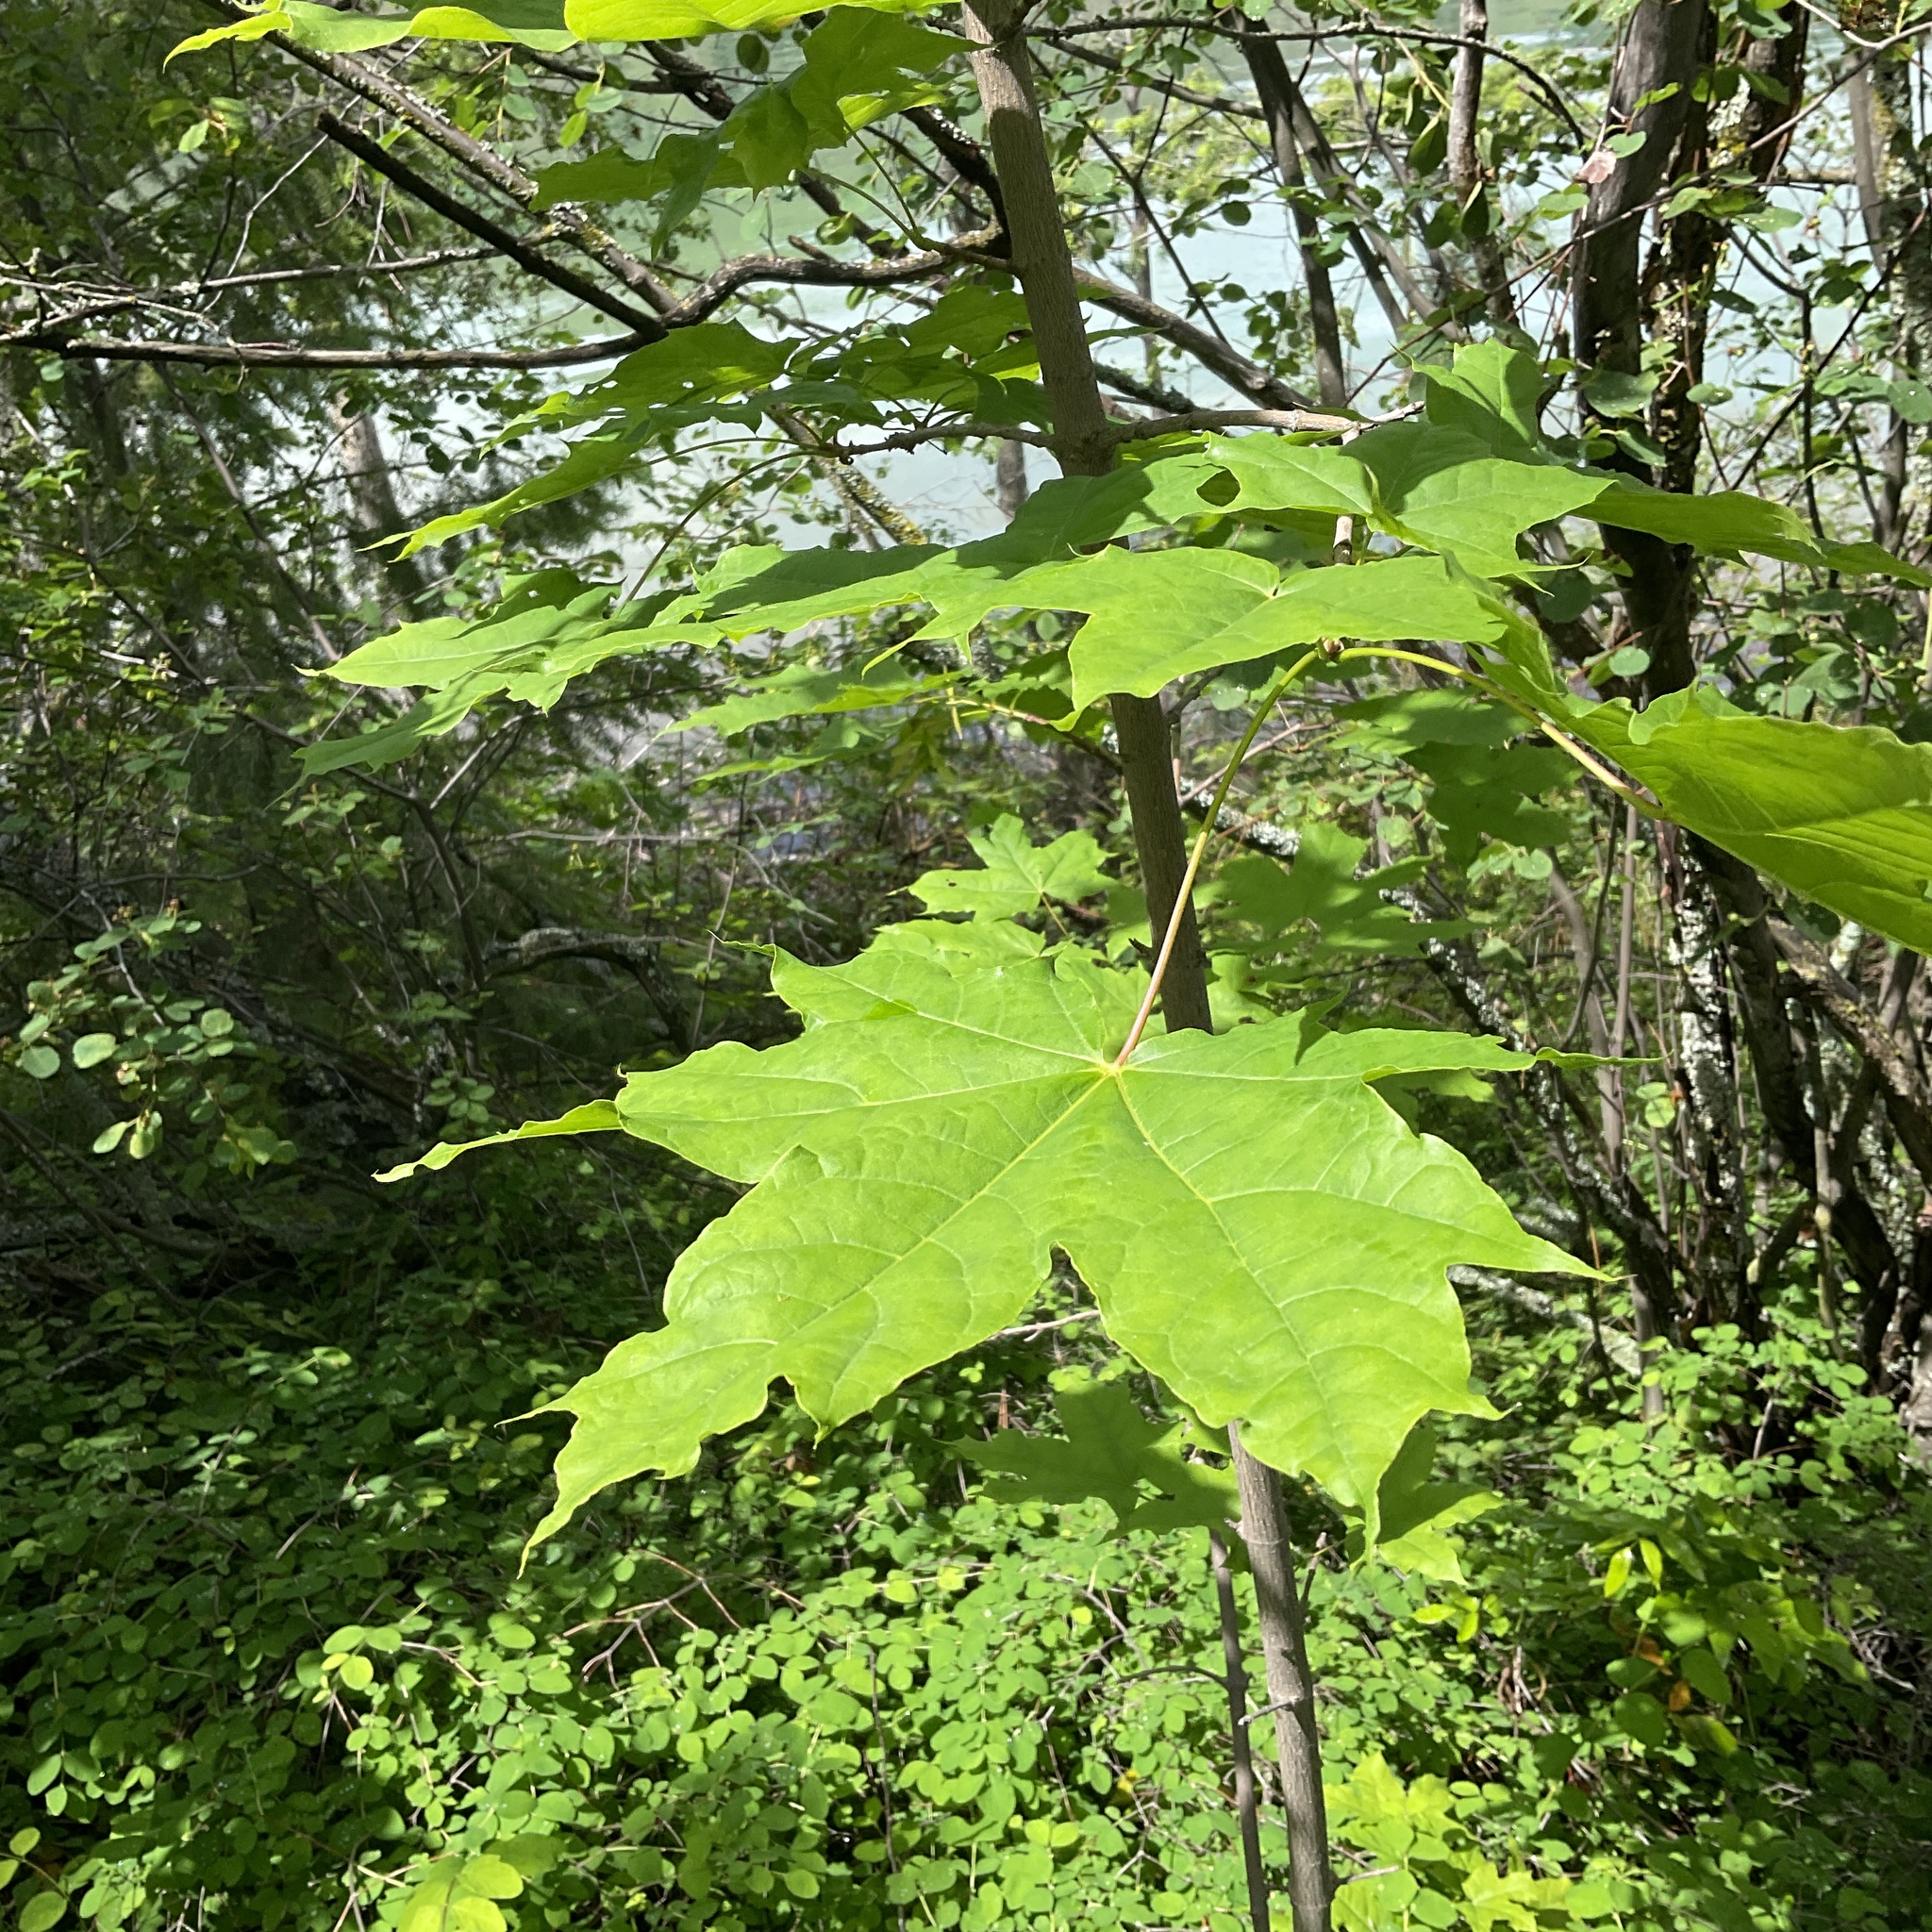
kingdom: Plantae
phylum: Tracheophyta
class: Magnoliopsida
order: Sapindales
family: Sapindaceae
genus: Acer
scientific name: Acer platanoides
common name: Norway maple
